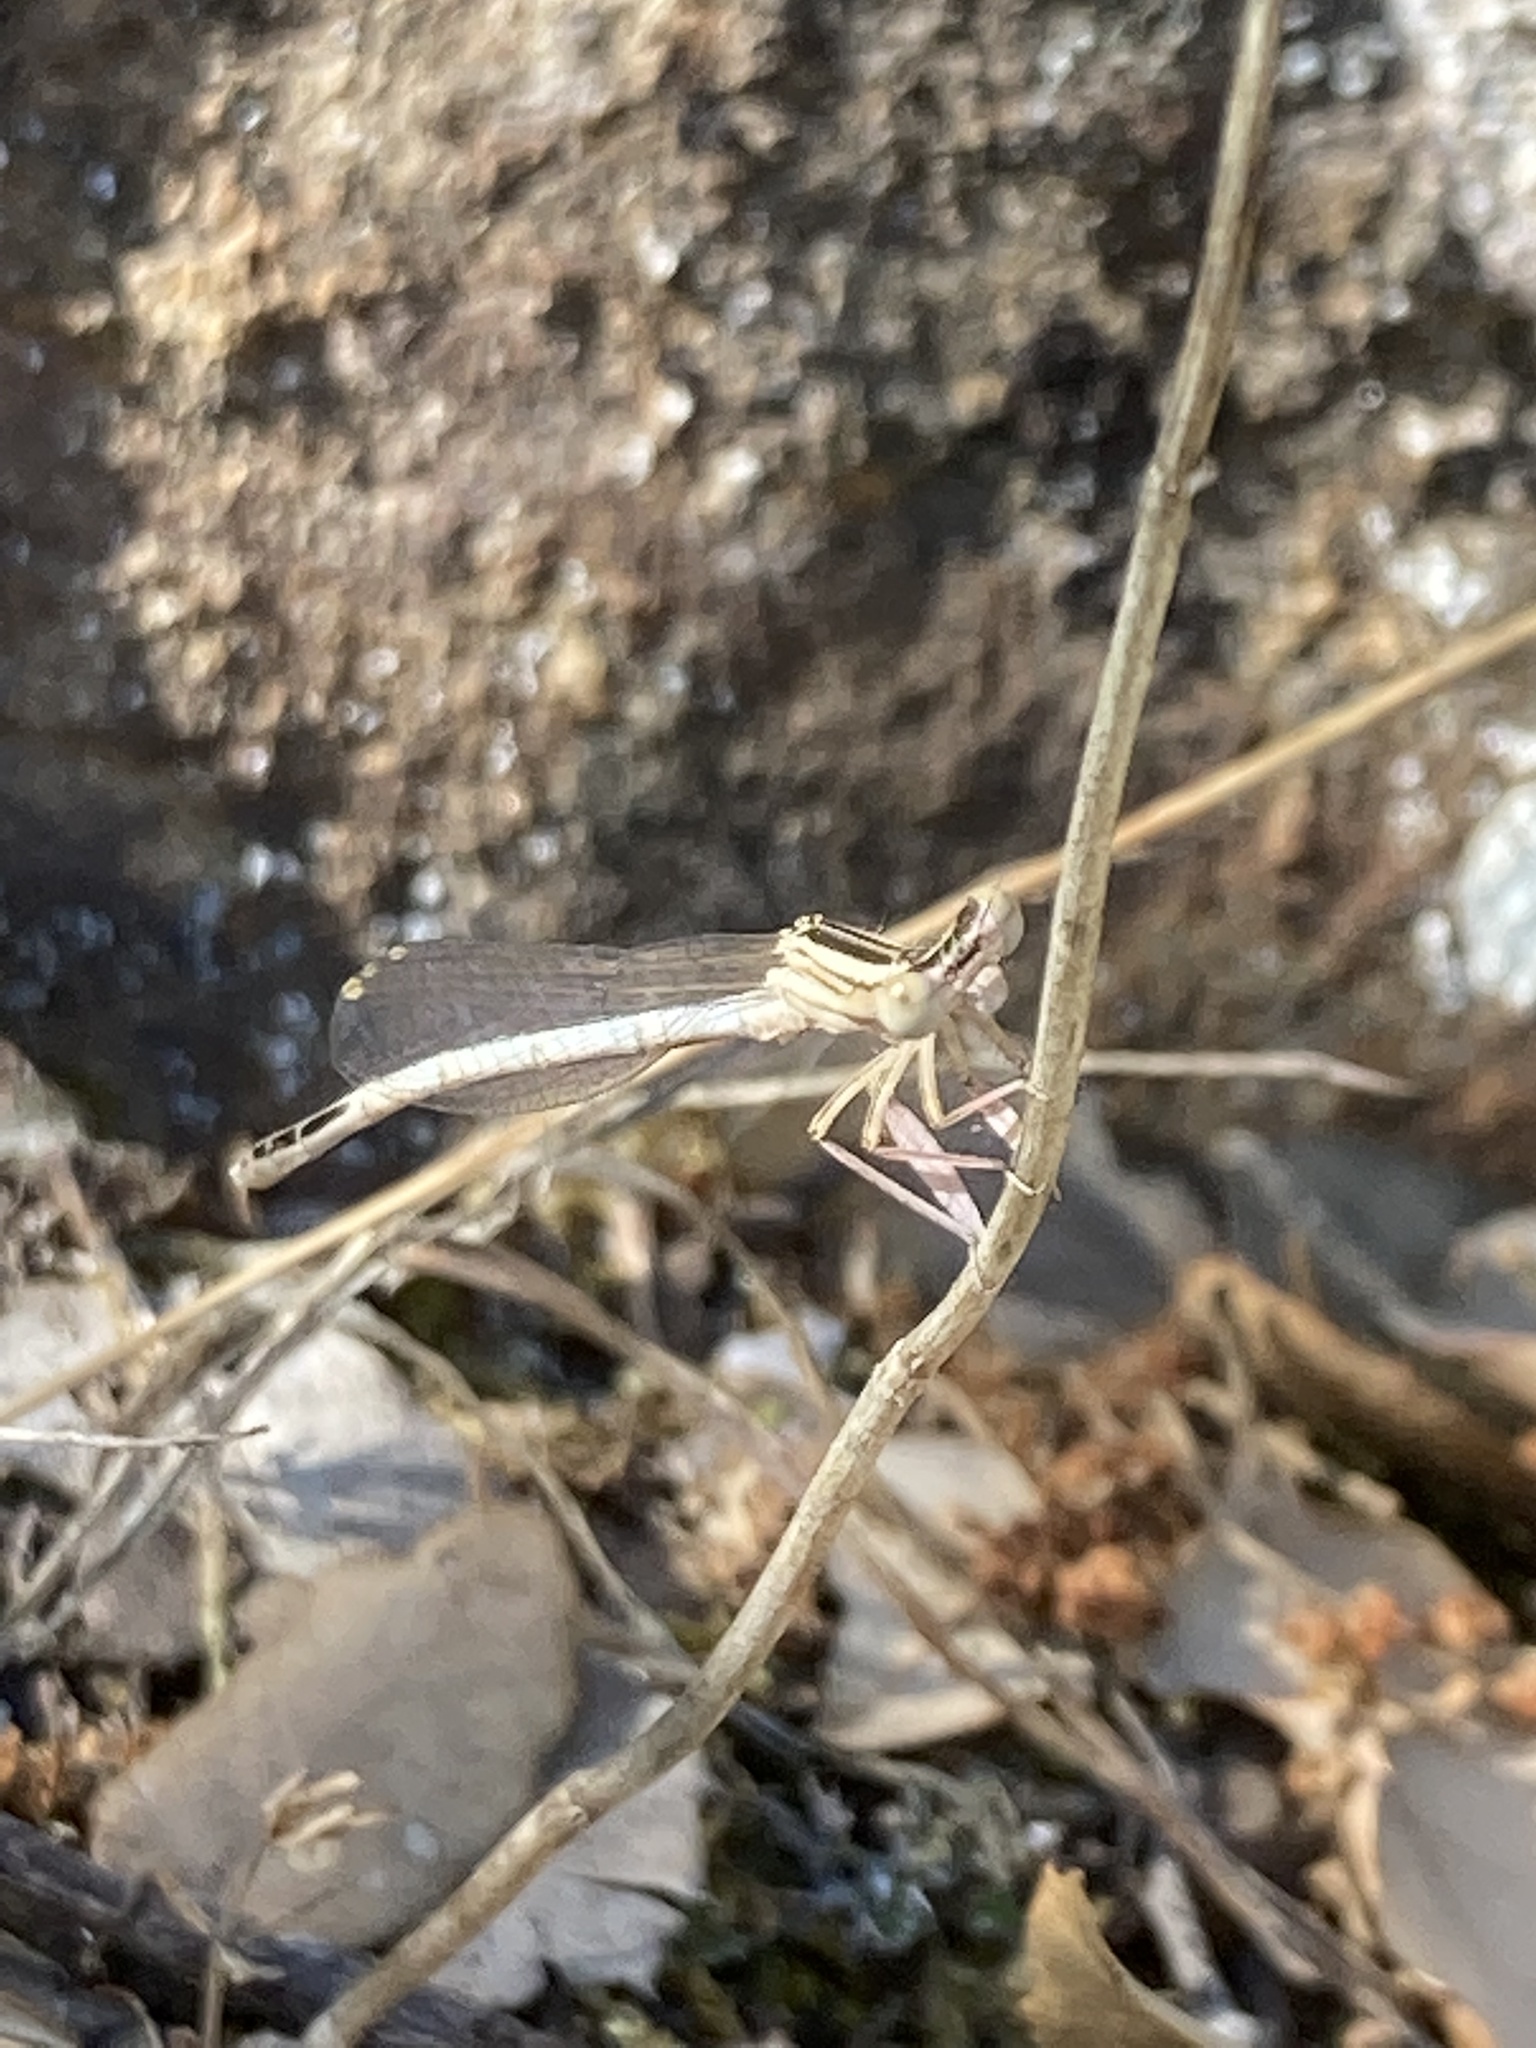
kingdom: Animalia
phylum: Arthropoda
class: Insecta
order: Odonata
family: Platycnemididae
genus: Platycnemis
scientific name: Platycnemis latipes
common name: White featherleg
